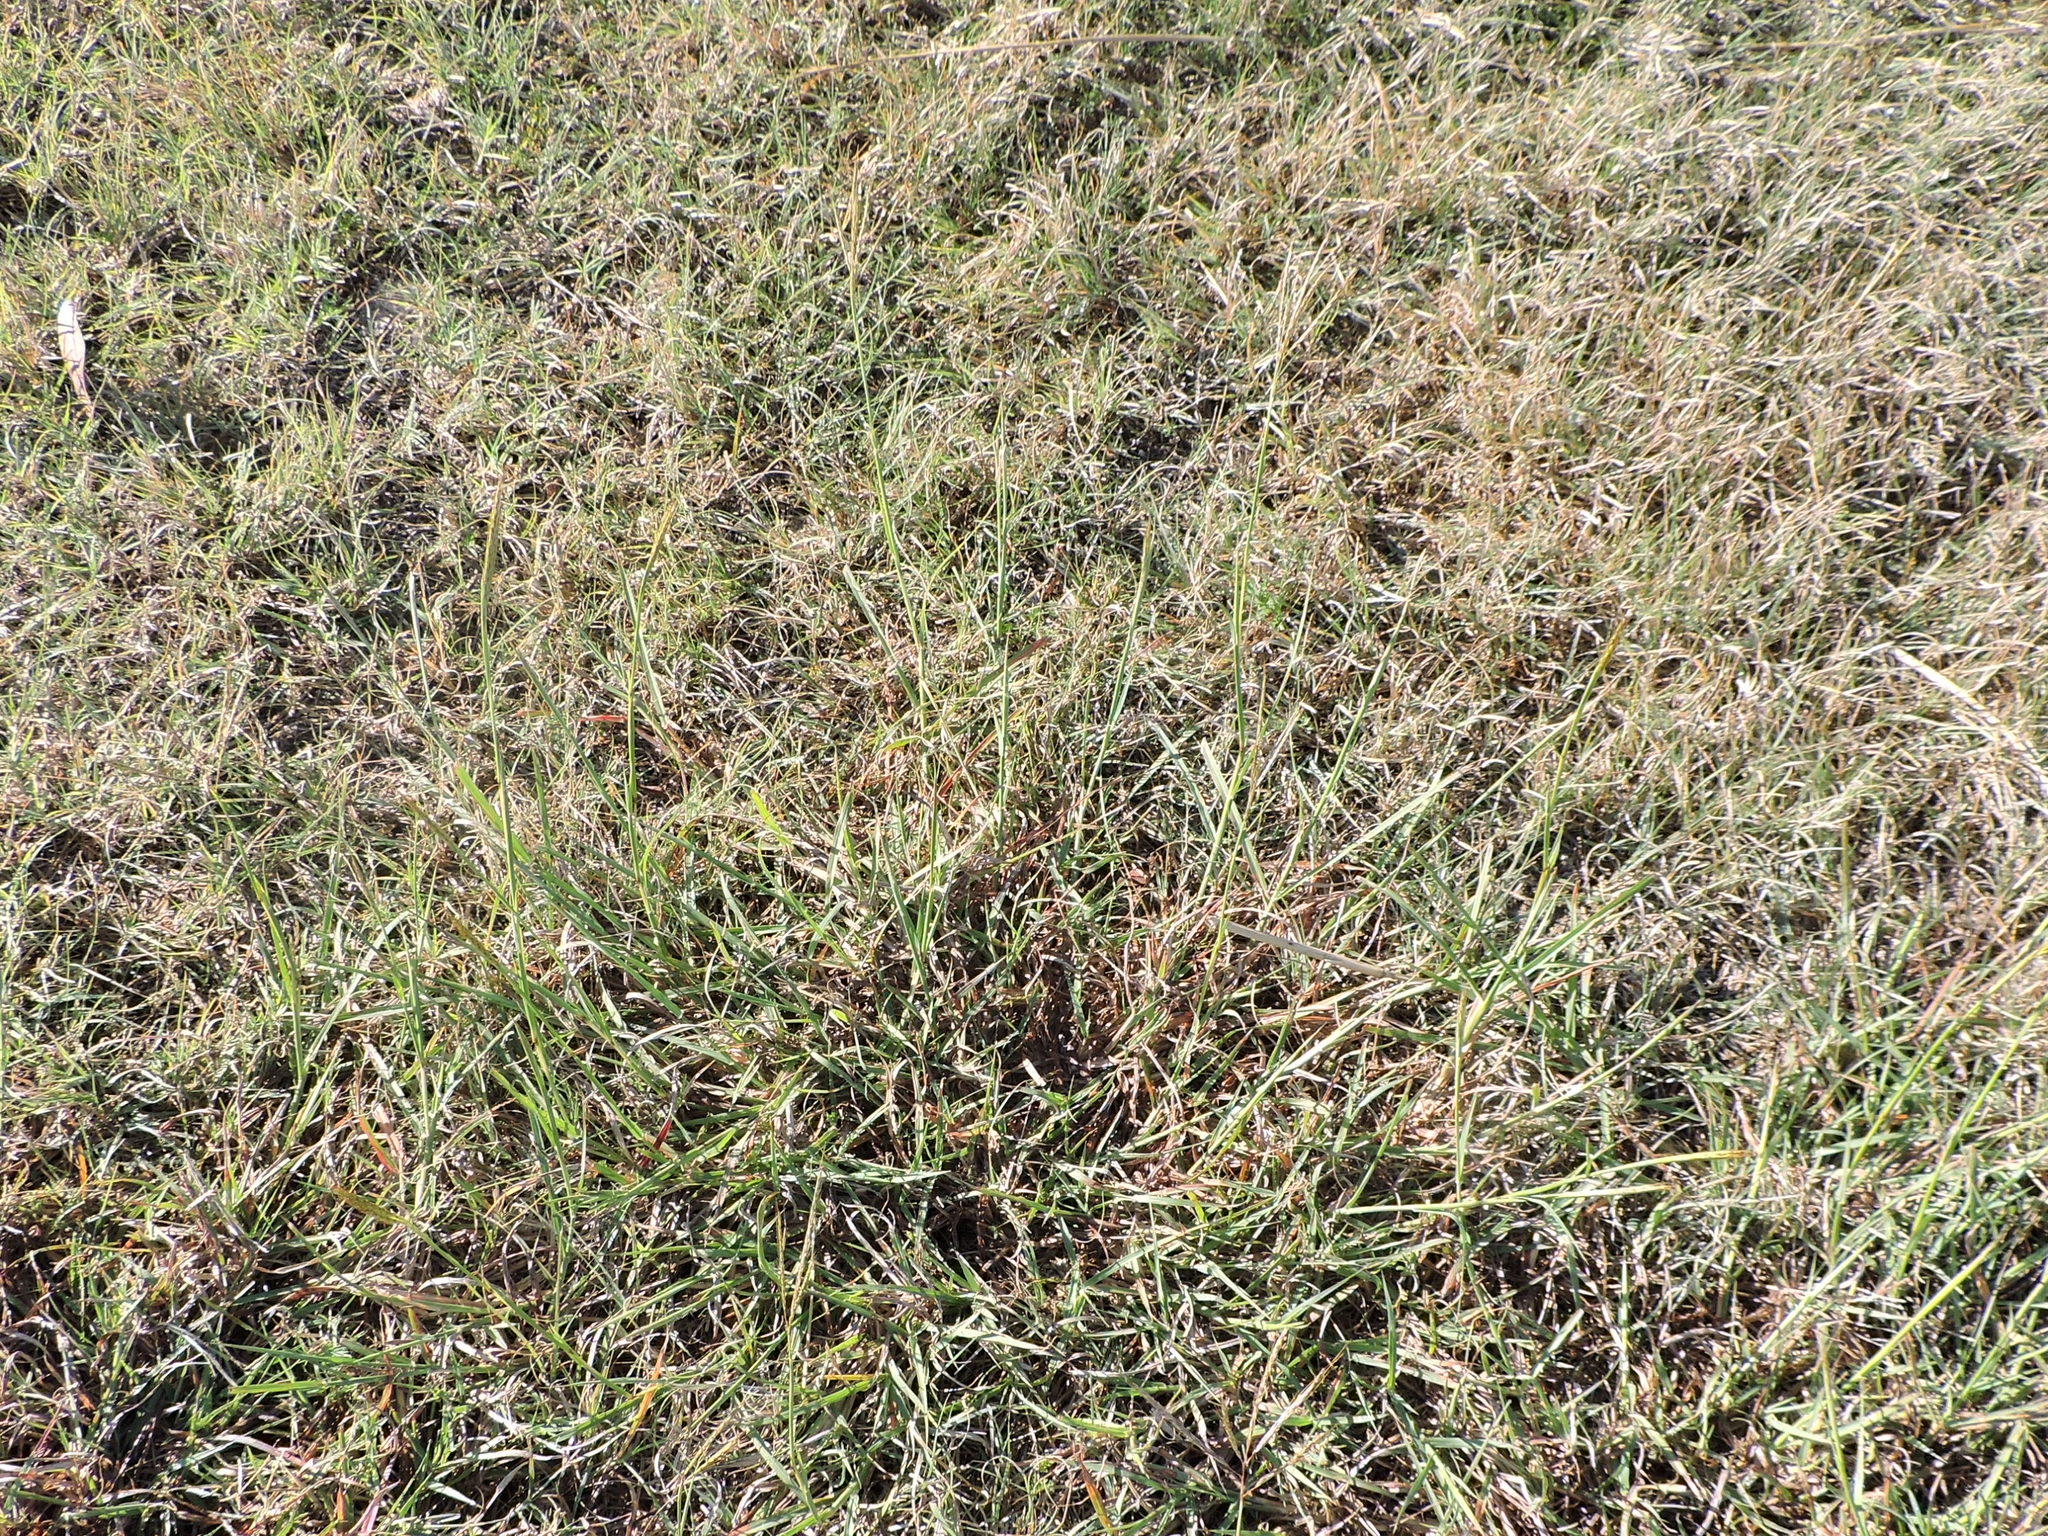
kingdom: Plantae
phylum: Tracheophyta
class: Liliopsida
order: Poales
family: Poaceae
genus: Bothriochloa
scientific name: Bothriochloa ischaemum
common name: Yellow bluestem
